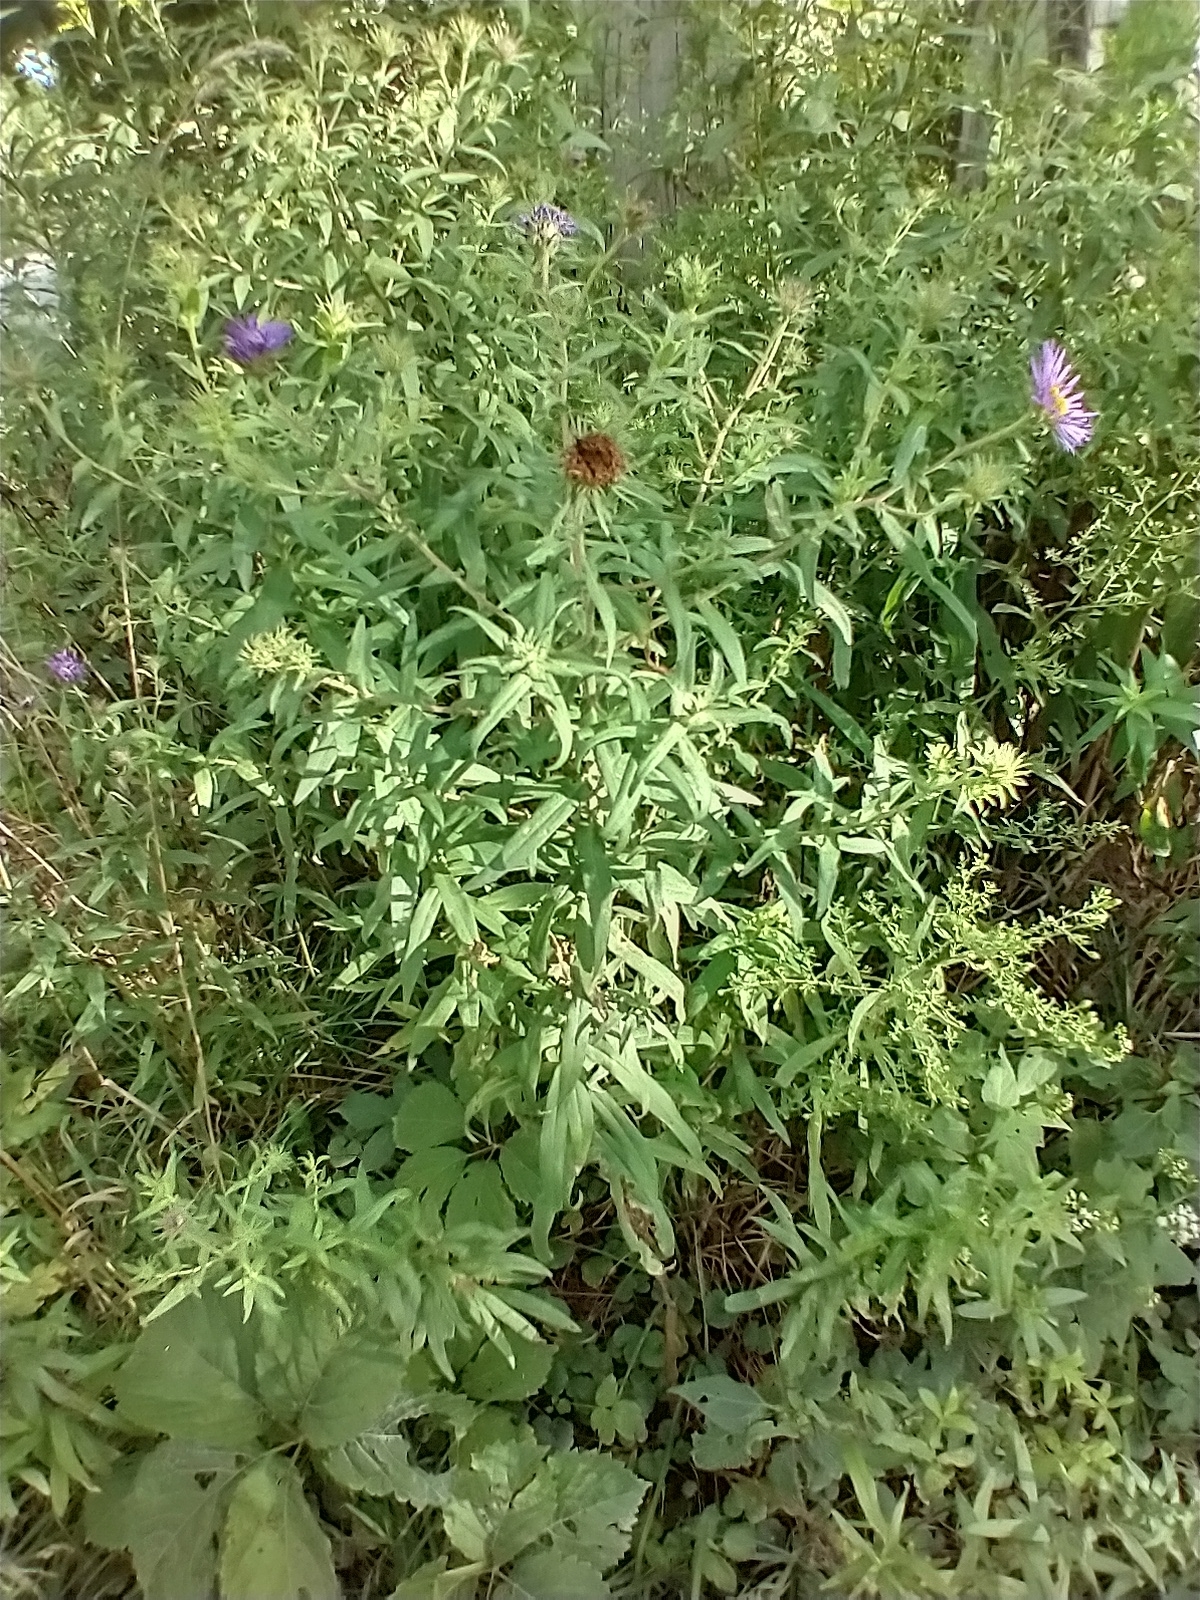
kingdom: Plantae
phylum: Tracheophyta
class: Magnoliopsida
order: Asterales
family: Asteraceae
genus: Symphyotrichum
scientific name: Symphyotrichum novae-angliae
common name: Michaelmas daisy
